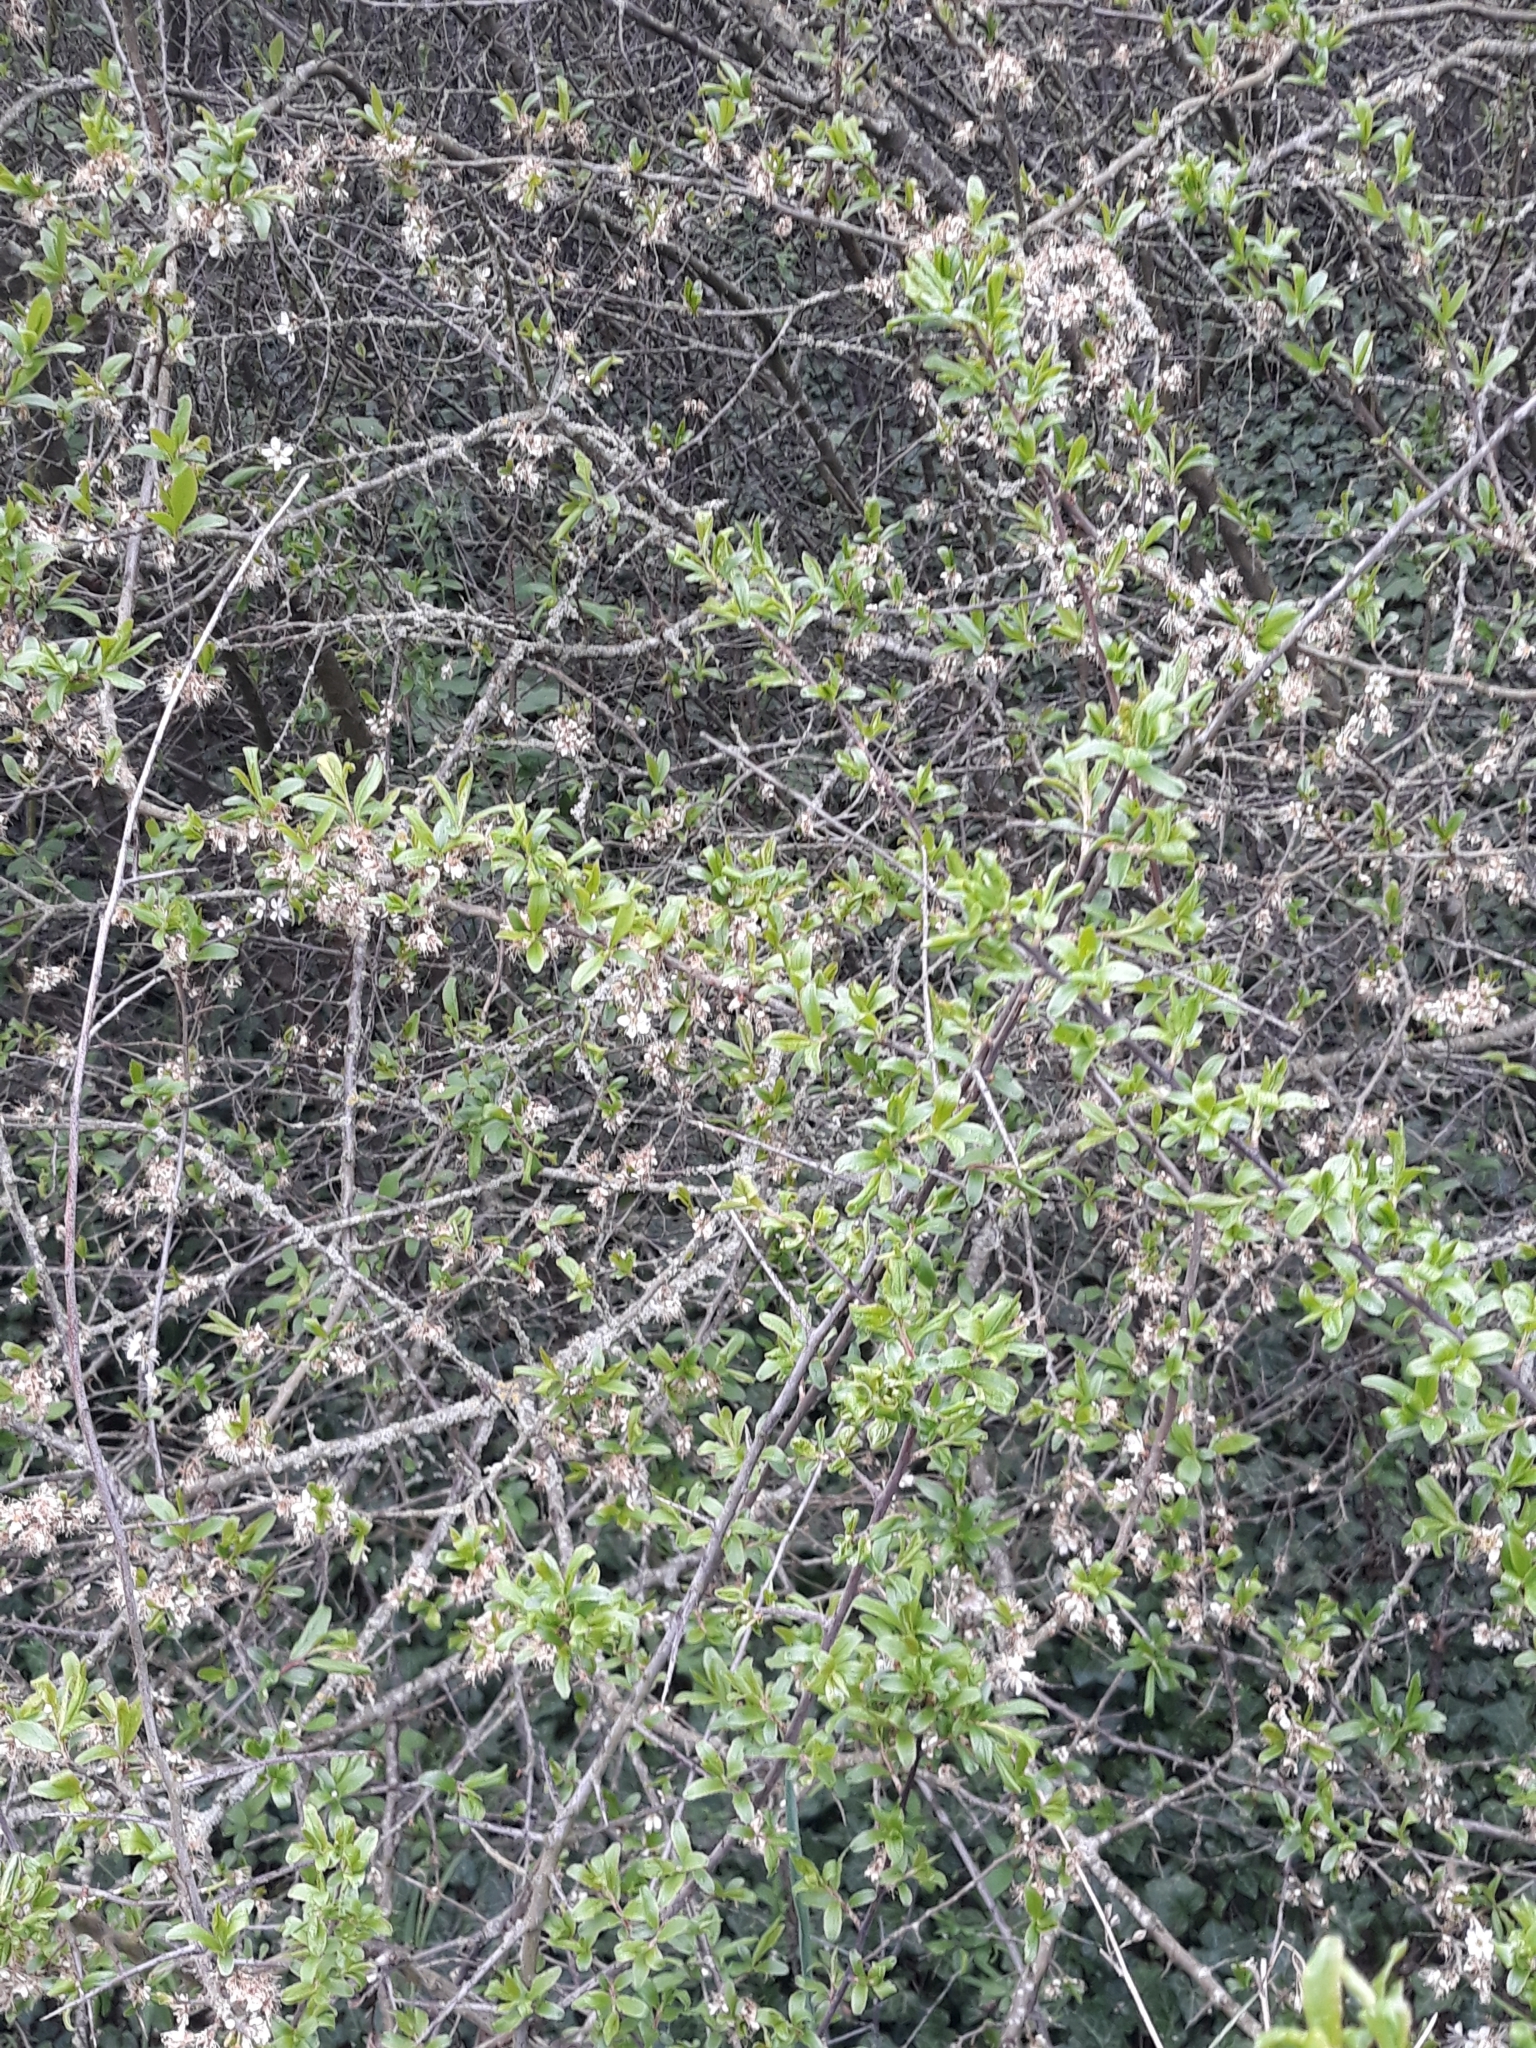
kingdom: Plantae
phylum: Tracheophyta
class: Magnoliopsida
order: Rosales
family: Rosaceae
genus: Prunus
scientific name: Prunus spinosa
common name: Blackthorn
